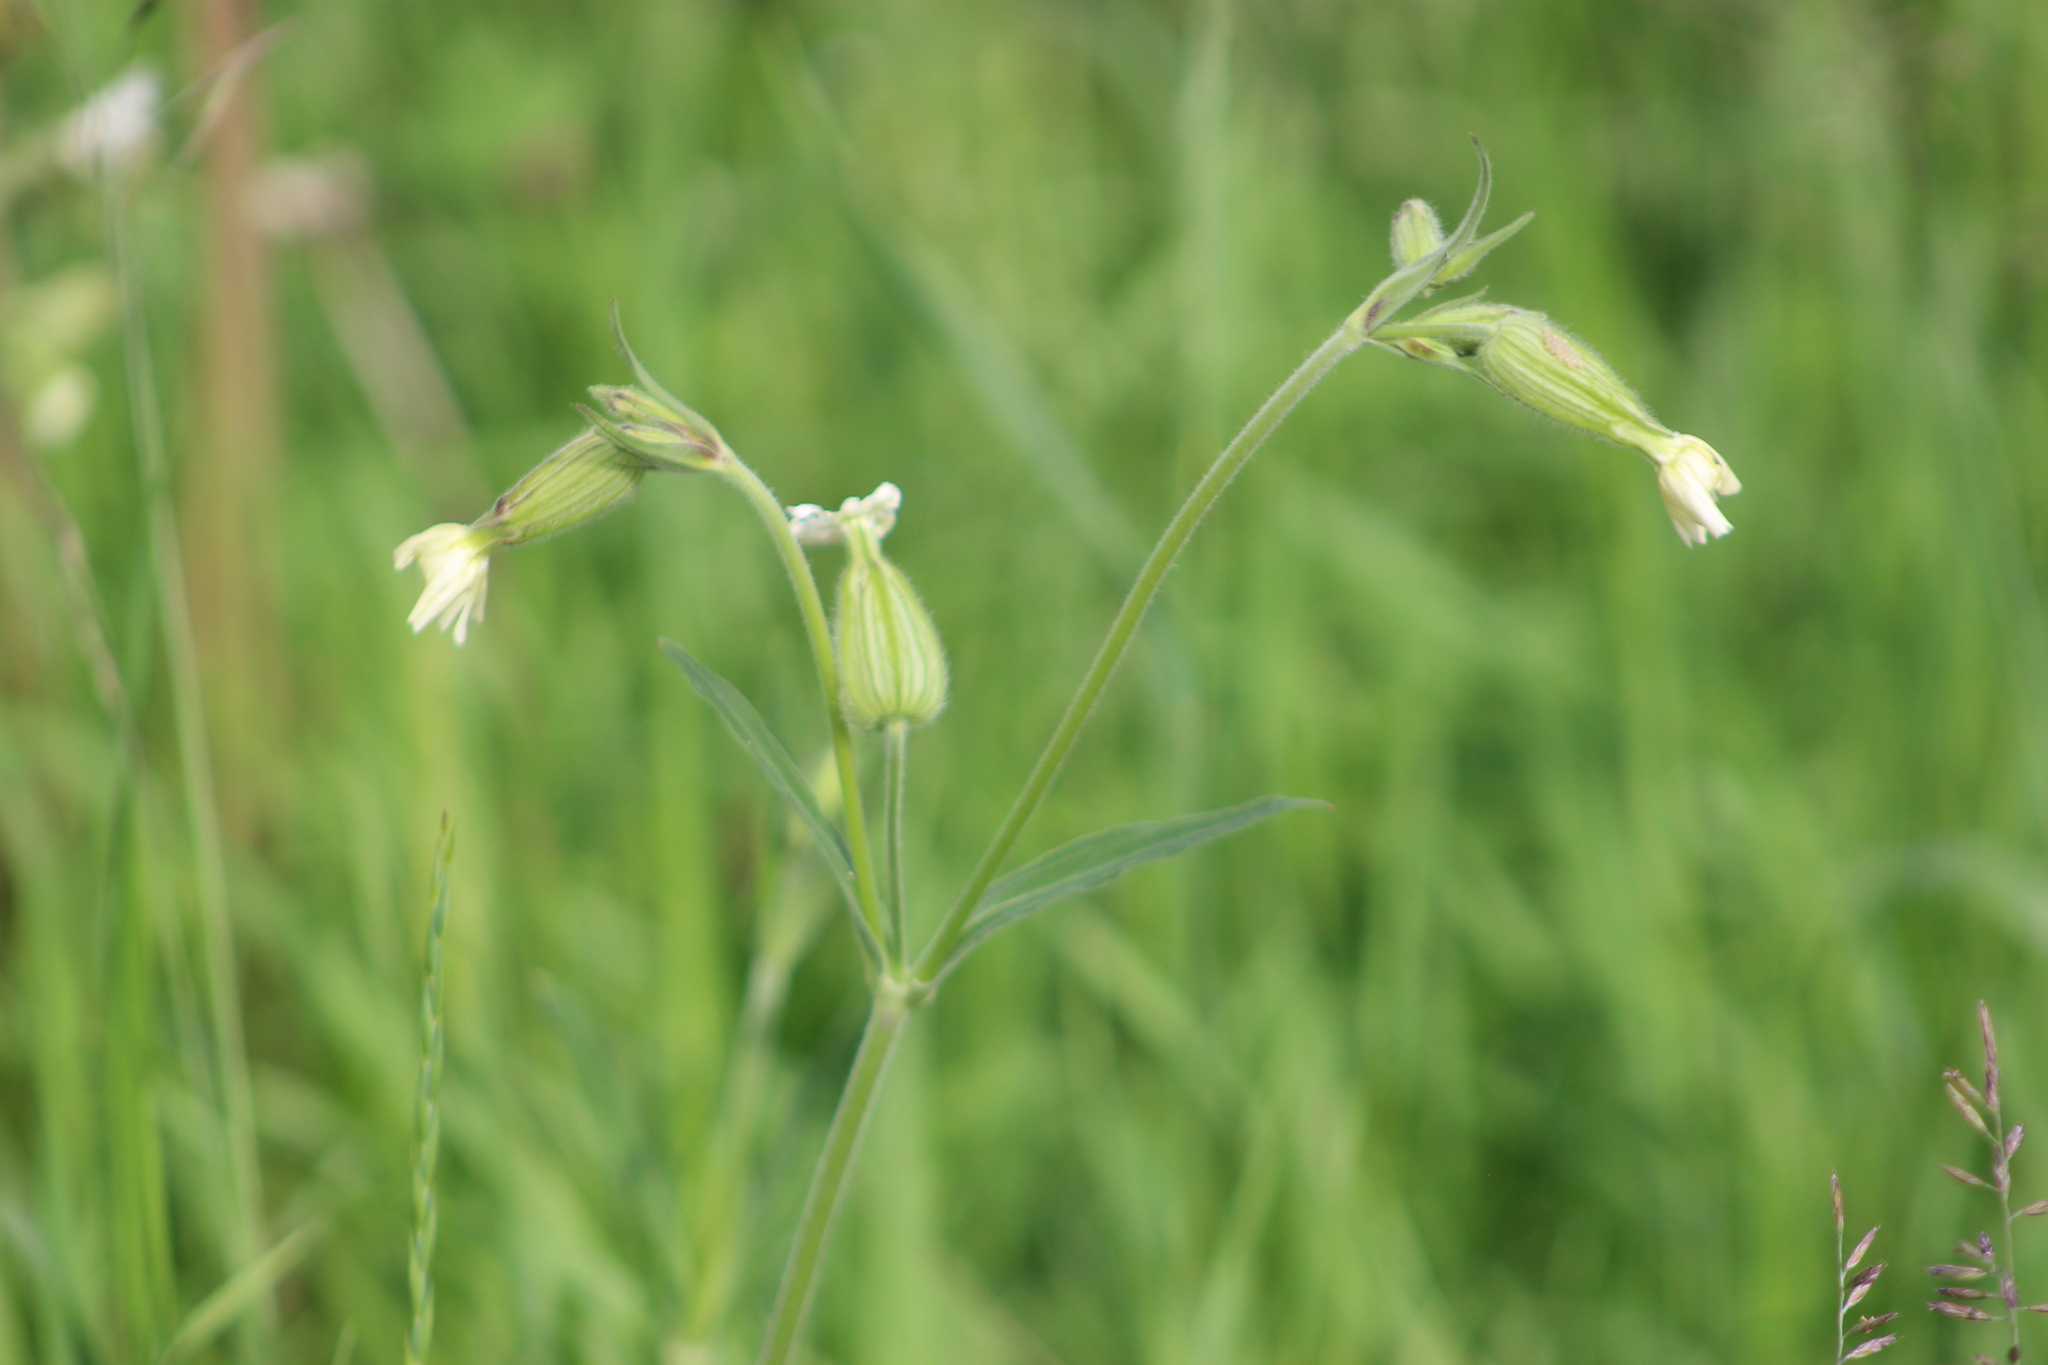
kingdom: Plantae
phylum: Tracheophyta
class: Magnoliopsida
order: Caryophyllales
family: Caryophyllaceae
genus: Silene
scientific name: Silene latifolia
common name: White campion
